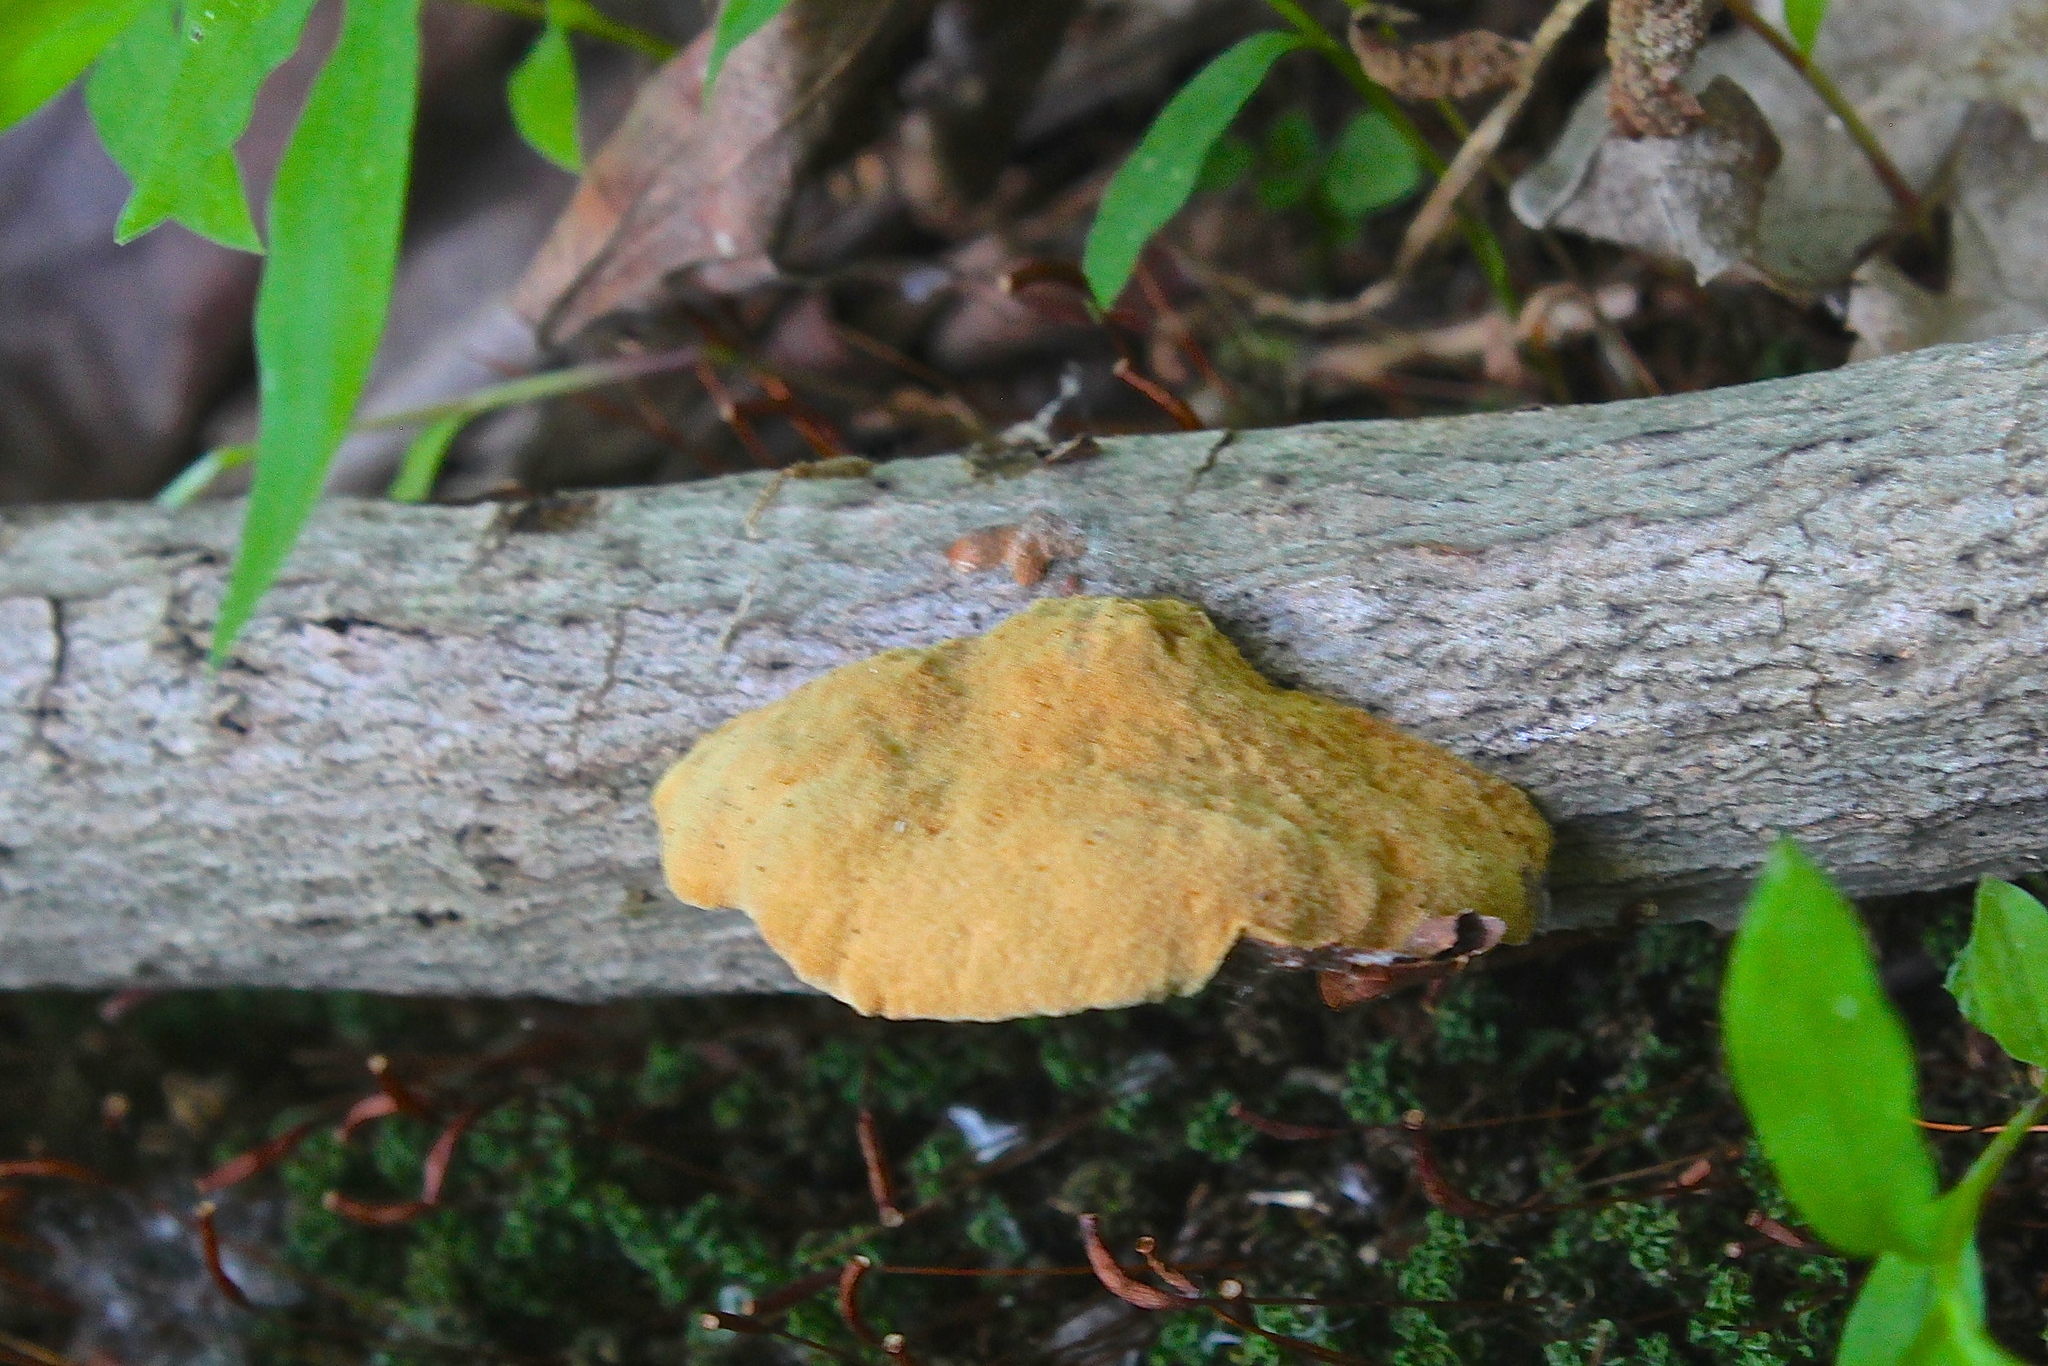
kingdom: Fungi
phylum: Basidiomycota
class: Agaricomycetes
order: Polyporales
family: Phanerochaetaceae
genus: Hapalopilus
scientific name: Hapalopilus rutilans
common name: Tender nesting polypore
